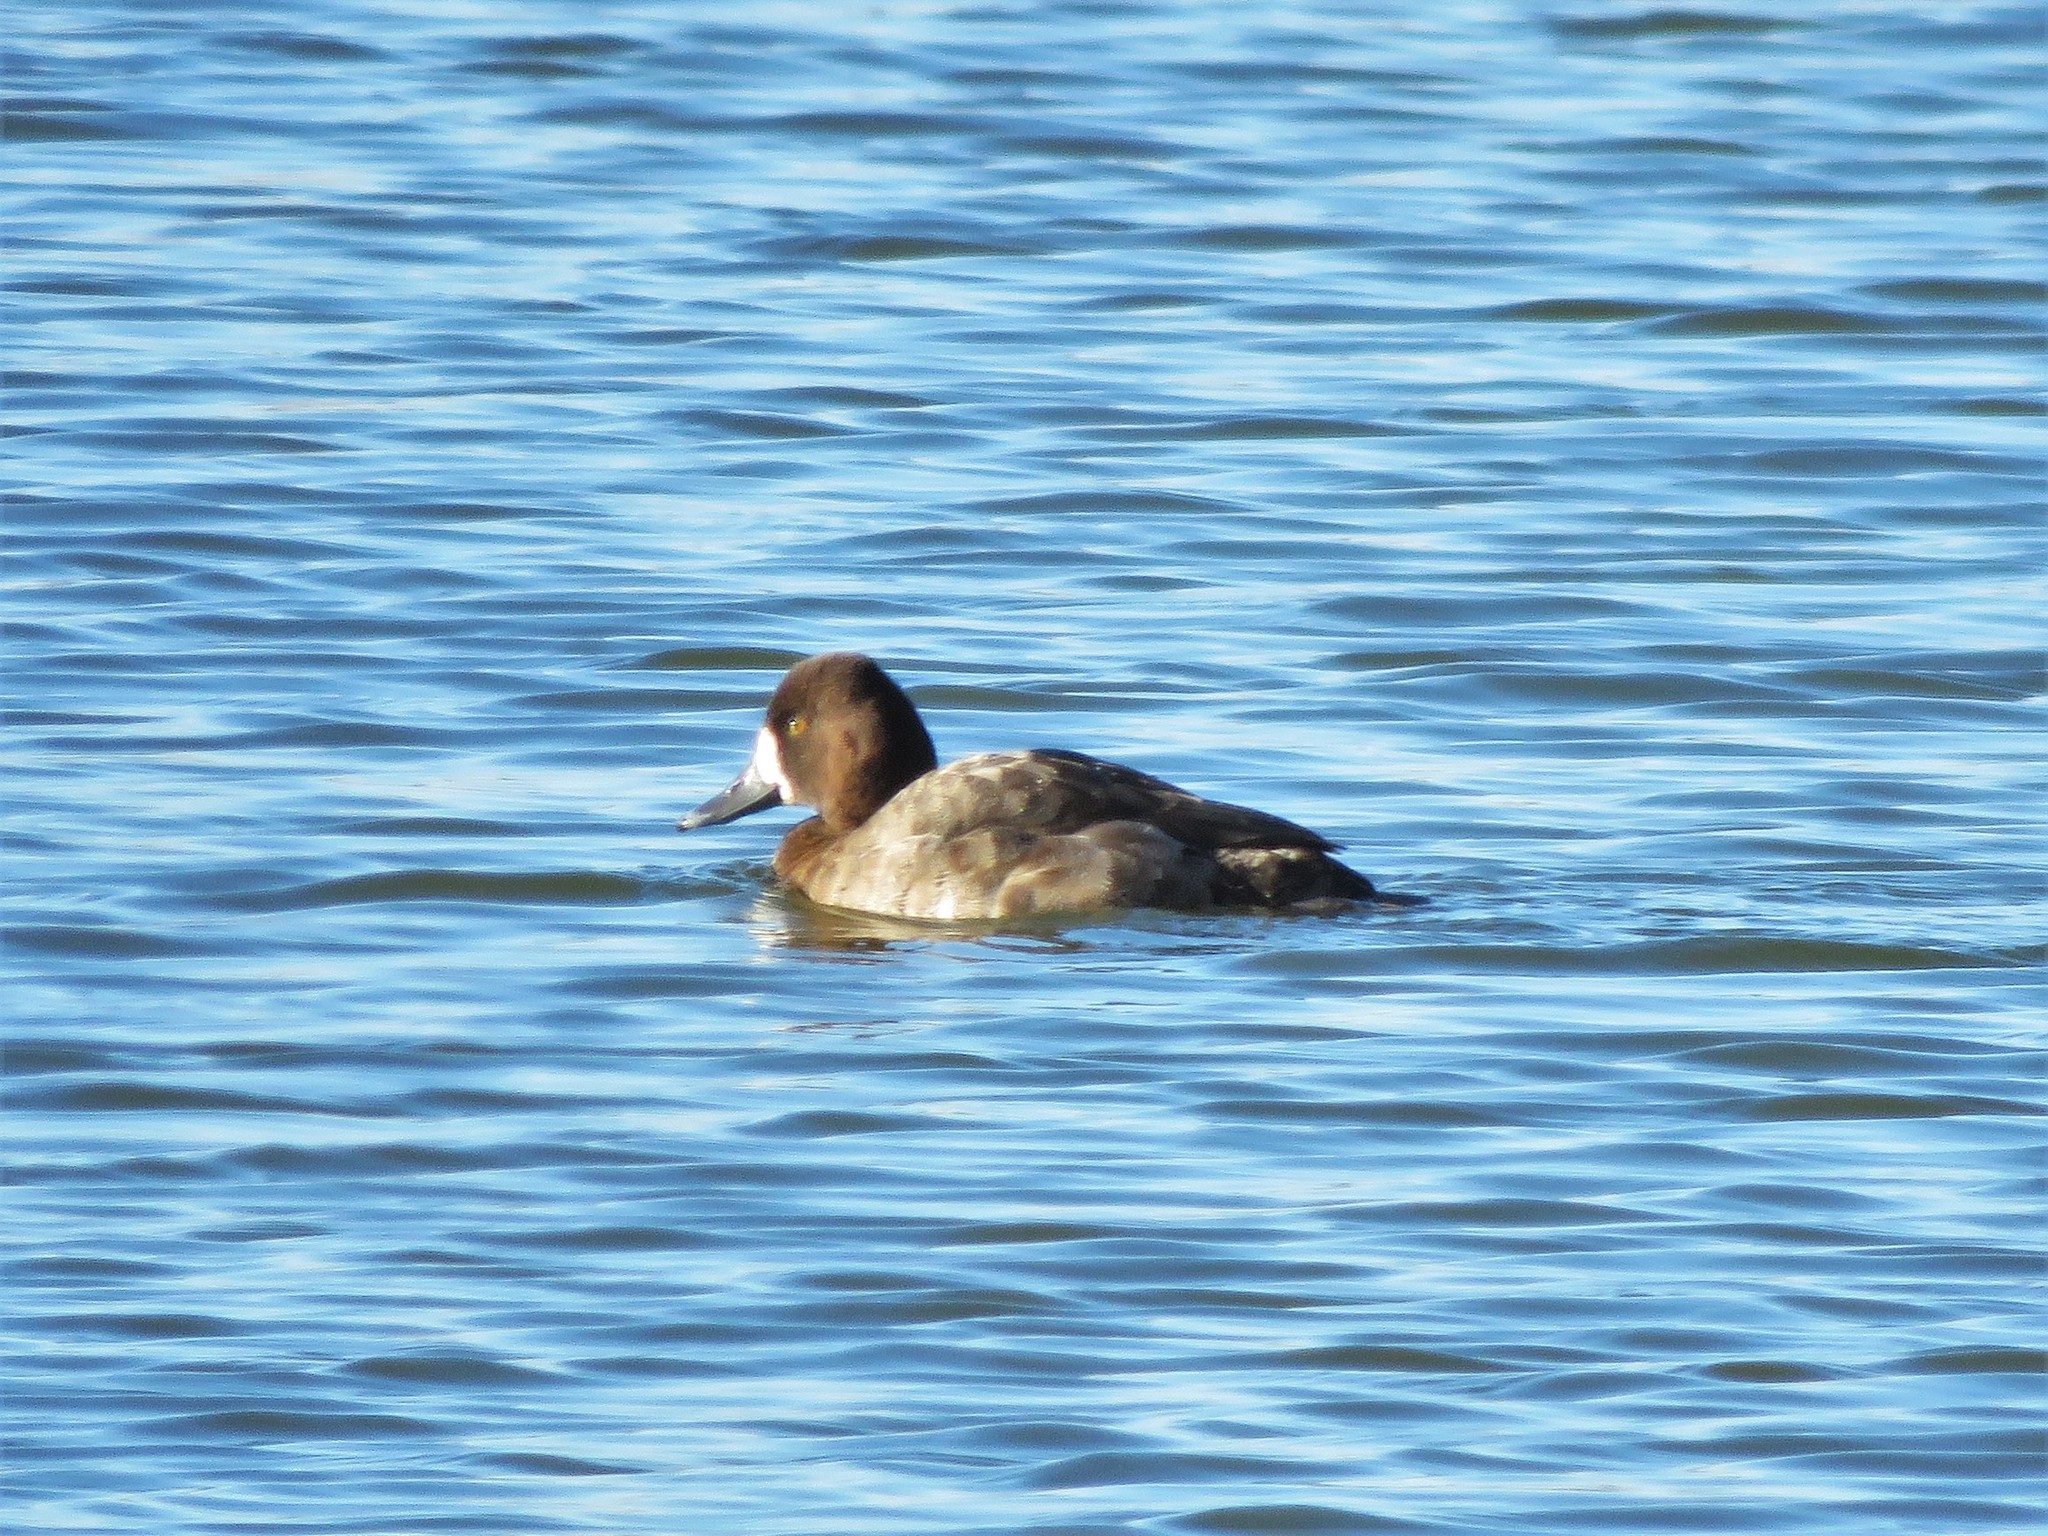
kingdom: Animalia
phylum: Chordata
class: Aves
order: Anseriformes
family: Anatidae
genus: Aythya
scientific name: Aythya affinis
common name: Lesser scaup
